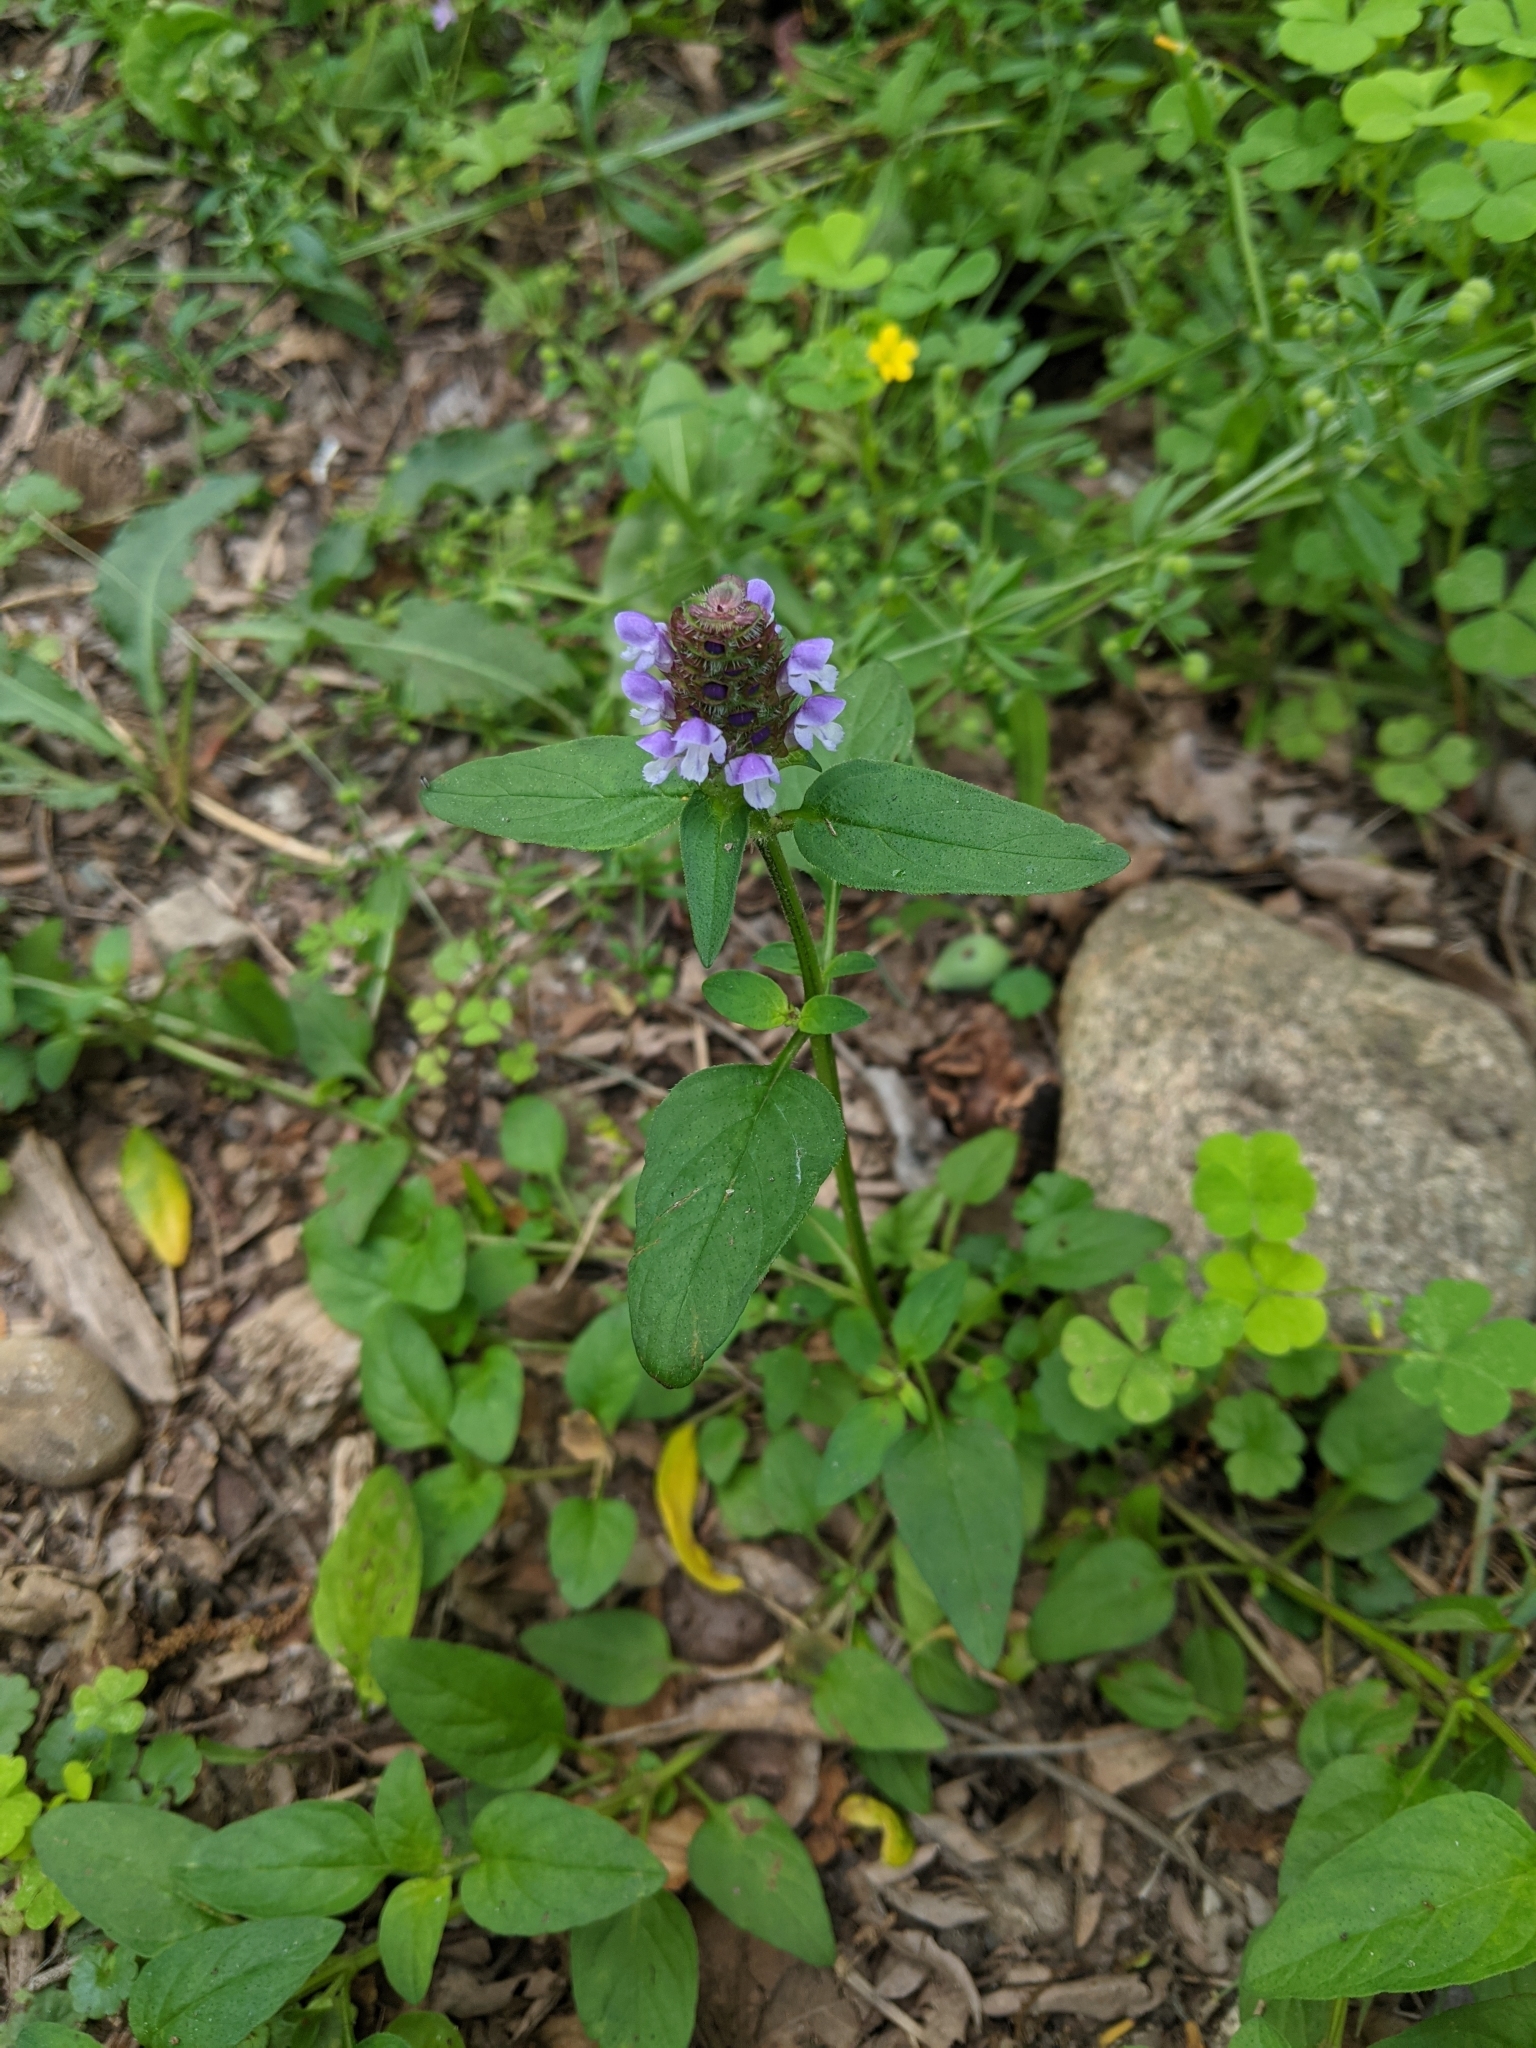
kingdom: Plantae
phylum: Tracheophyta
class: Magnoliopsida
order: Lamiales
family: Lamiaceae
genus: Prunella
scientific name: Prunella vulgaris
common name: Heal-all
